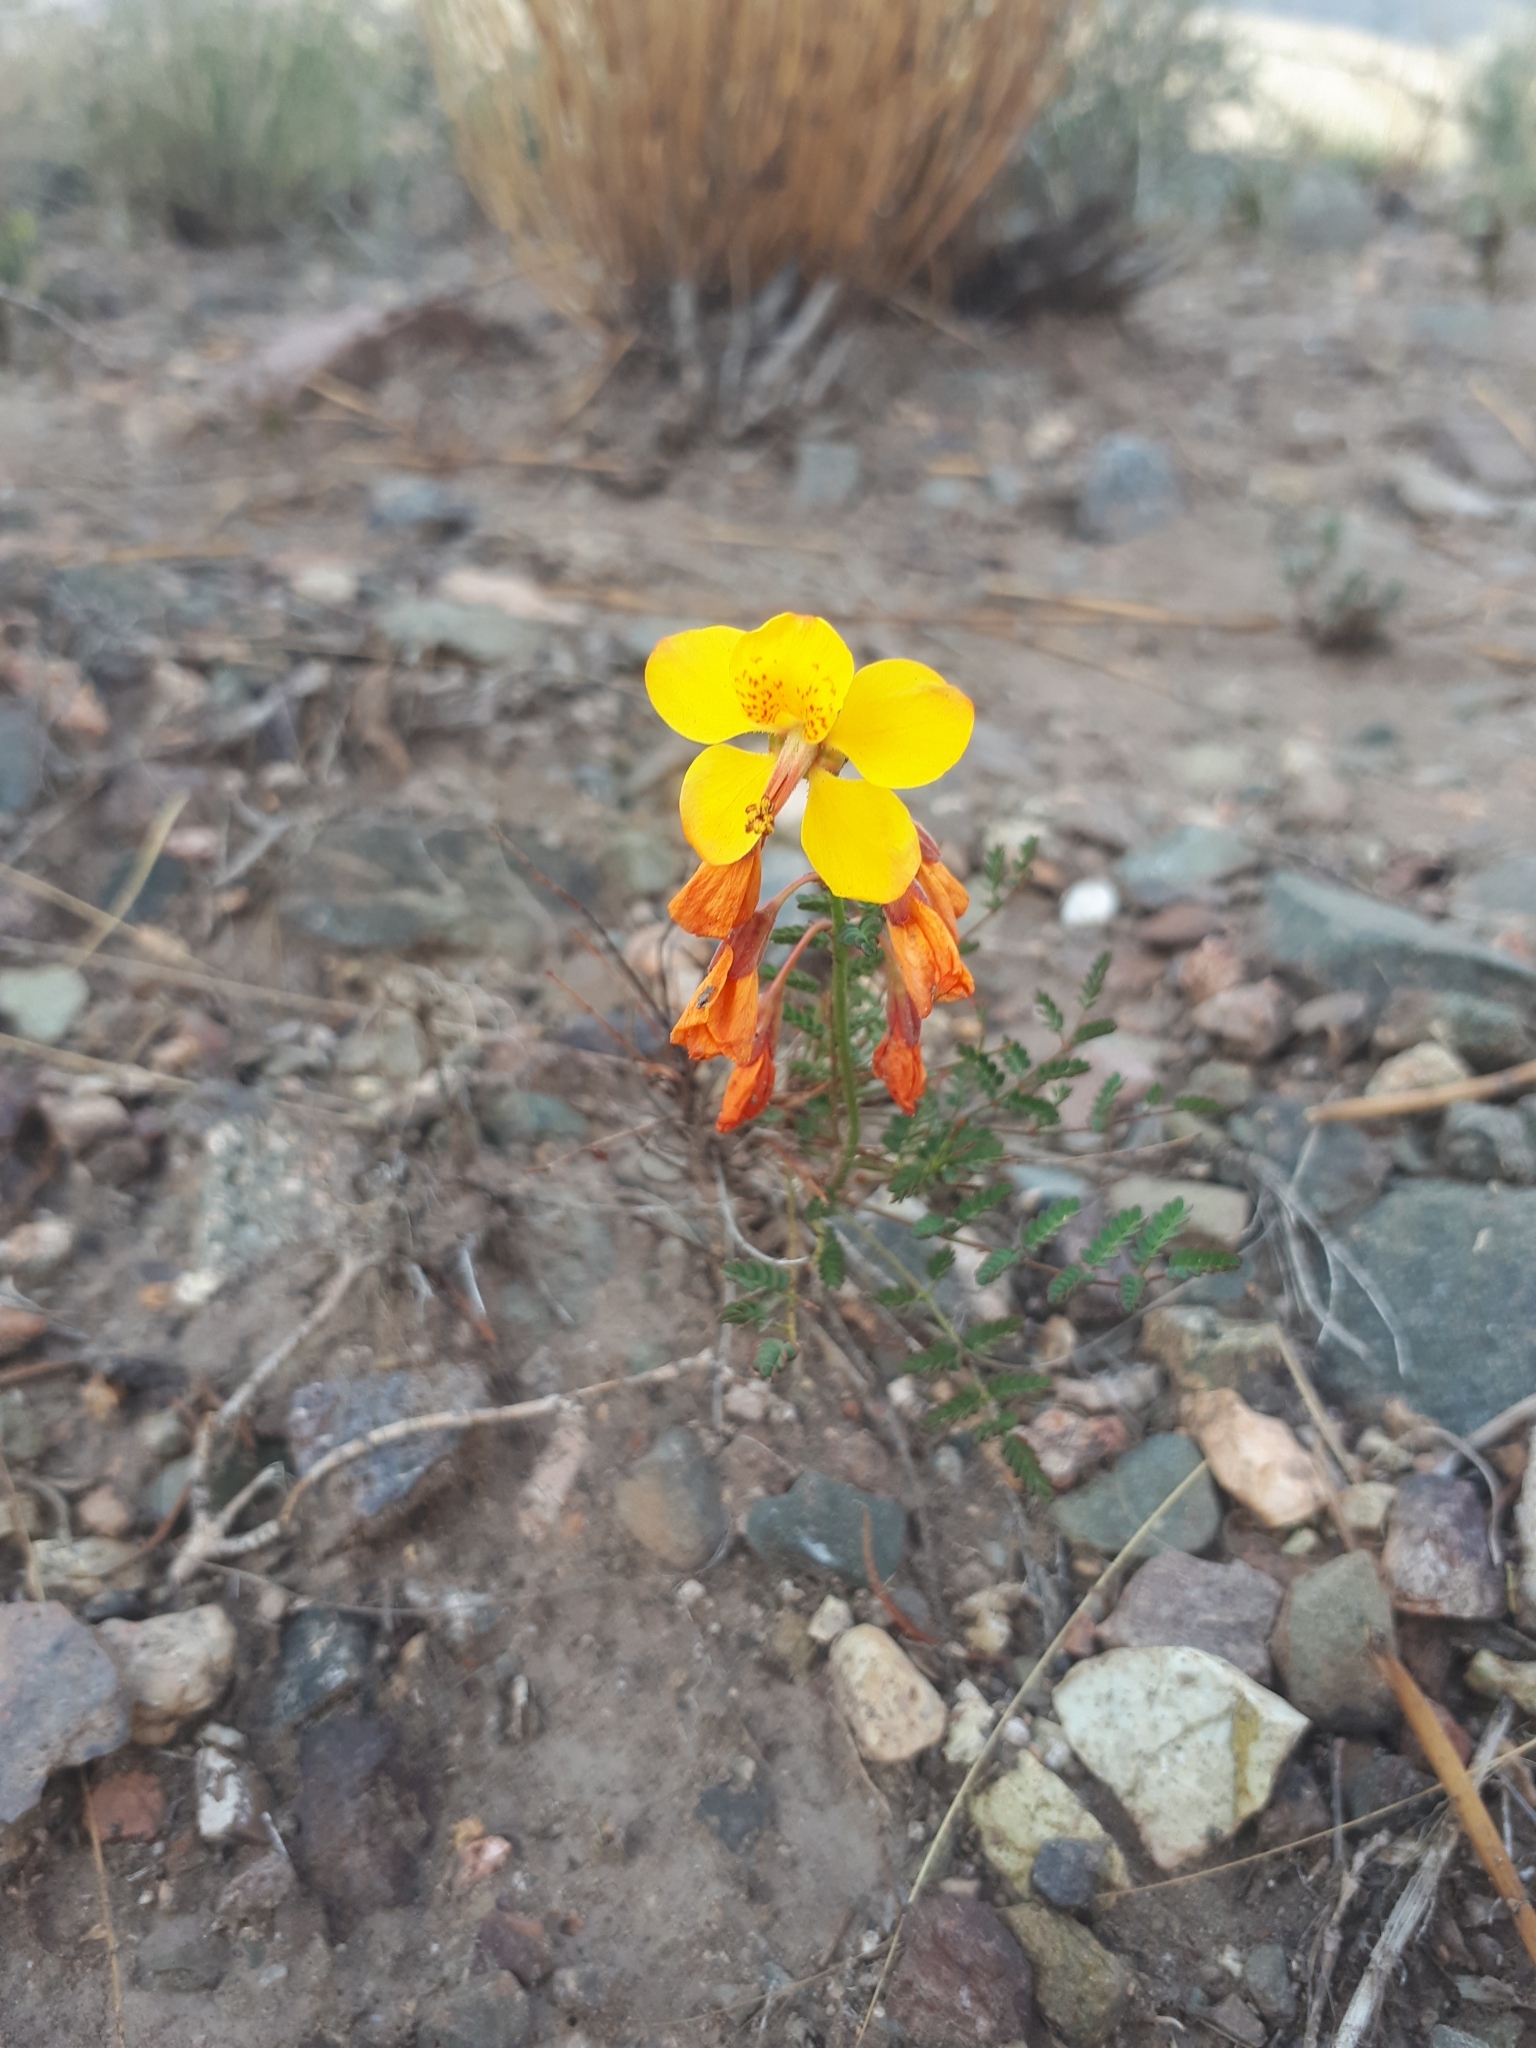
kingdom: Plantae
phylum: Tracheophyta
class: Magnoliopsida
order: Fabales
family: Fabaceae
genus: Hoffmannseggia
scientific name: Hoffmannseggia erecta
